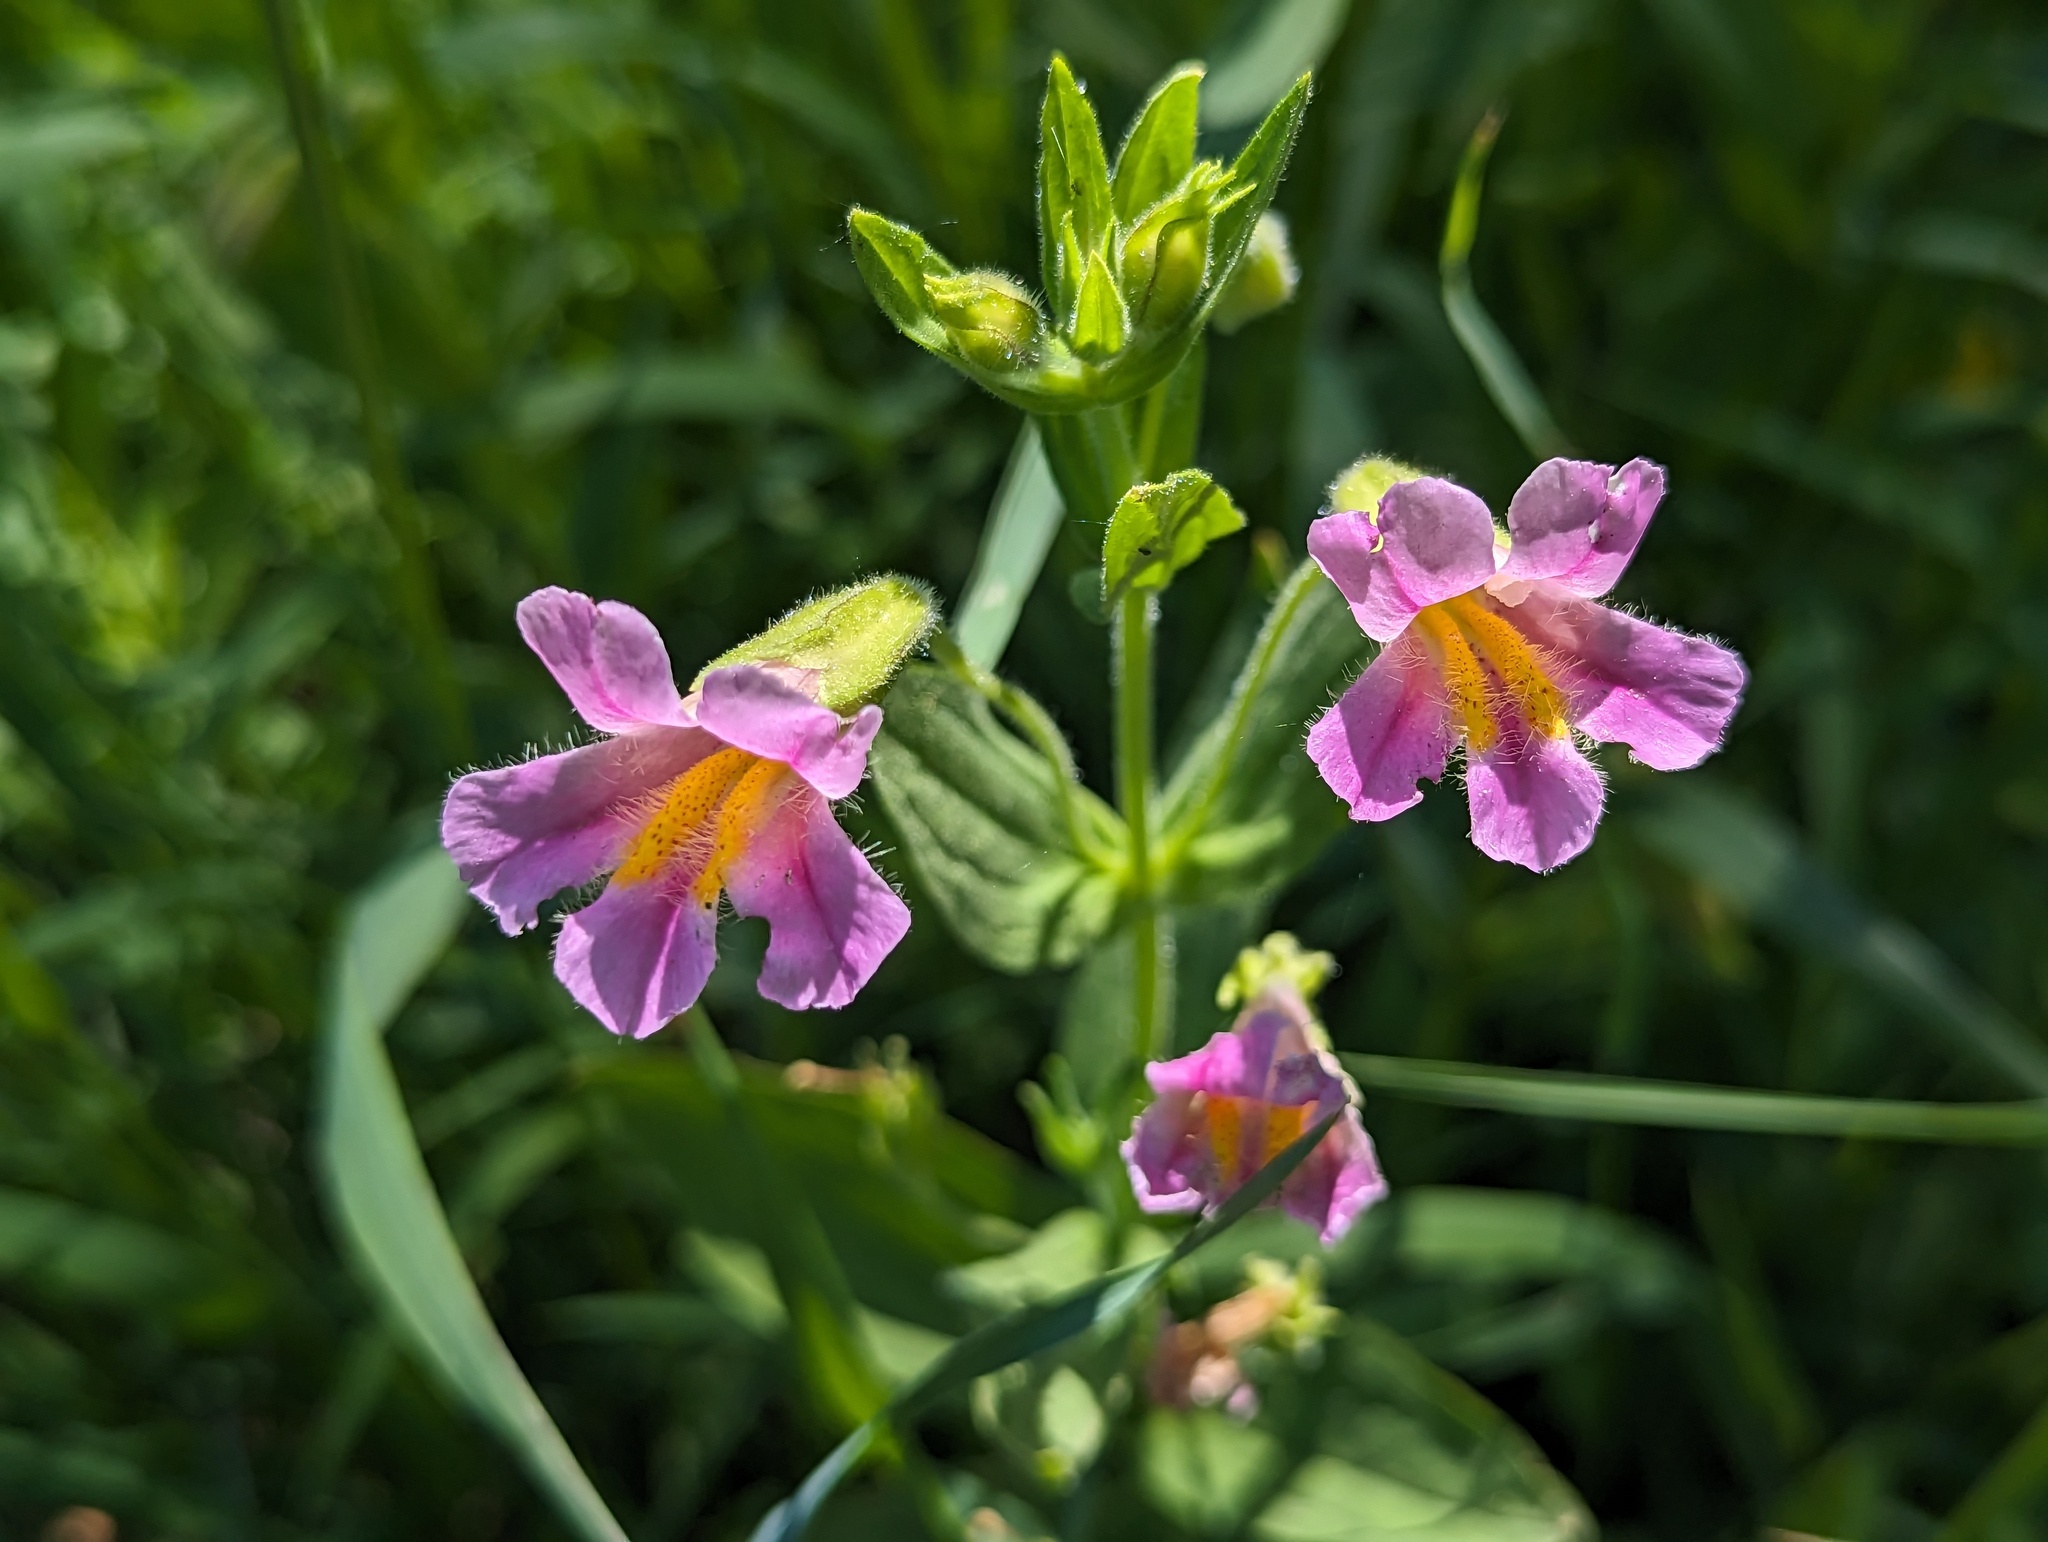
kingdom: Plantae
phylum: Tracheophyta
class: Magnoliopsida
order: Lamiales
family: Phrymaceae
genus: Erythranthe
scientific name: Erythranthe erubescens
